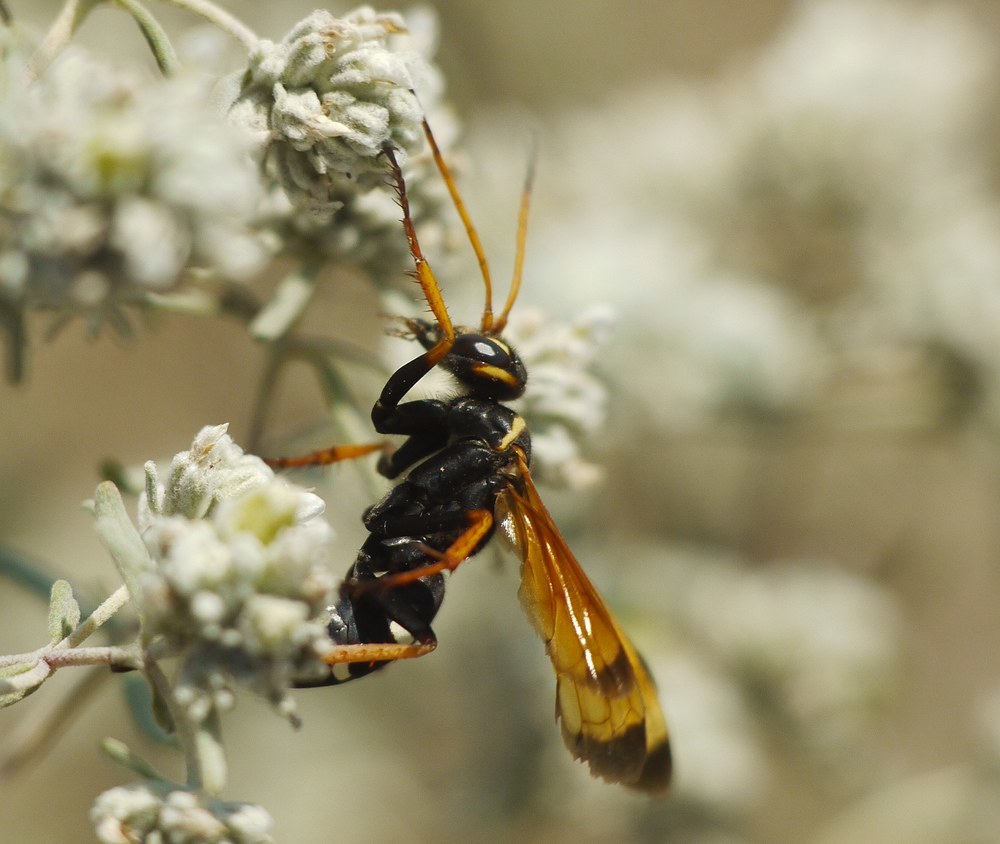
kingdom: Animalia
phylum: Arthropoda
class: Insecta
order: Hymenoptera
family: Pompilidae
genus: Parabatozonus
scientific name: Parabatozonus lacerticida
